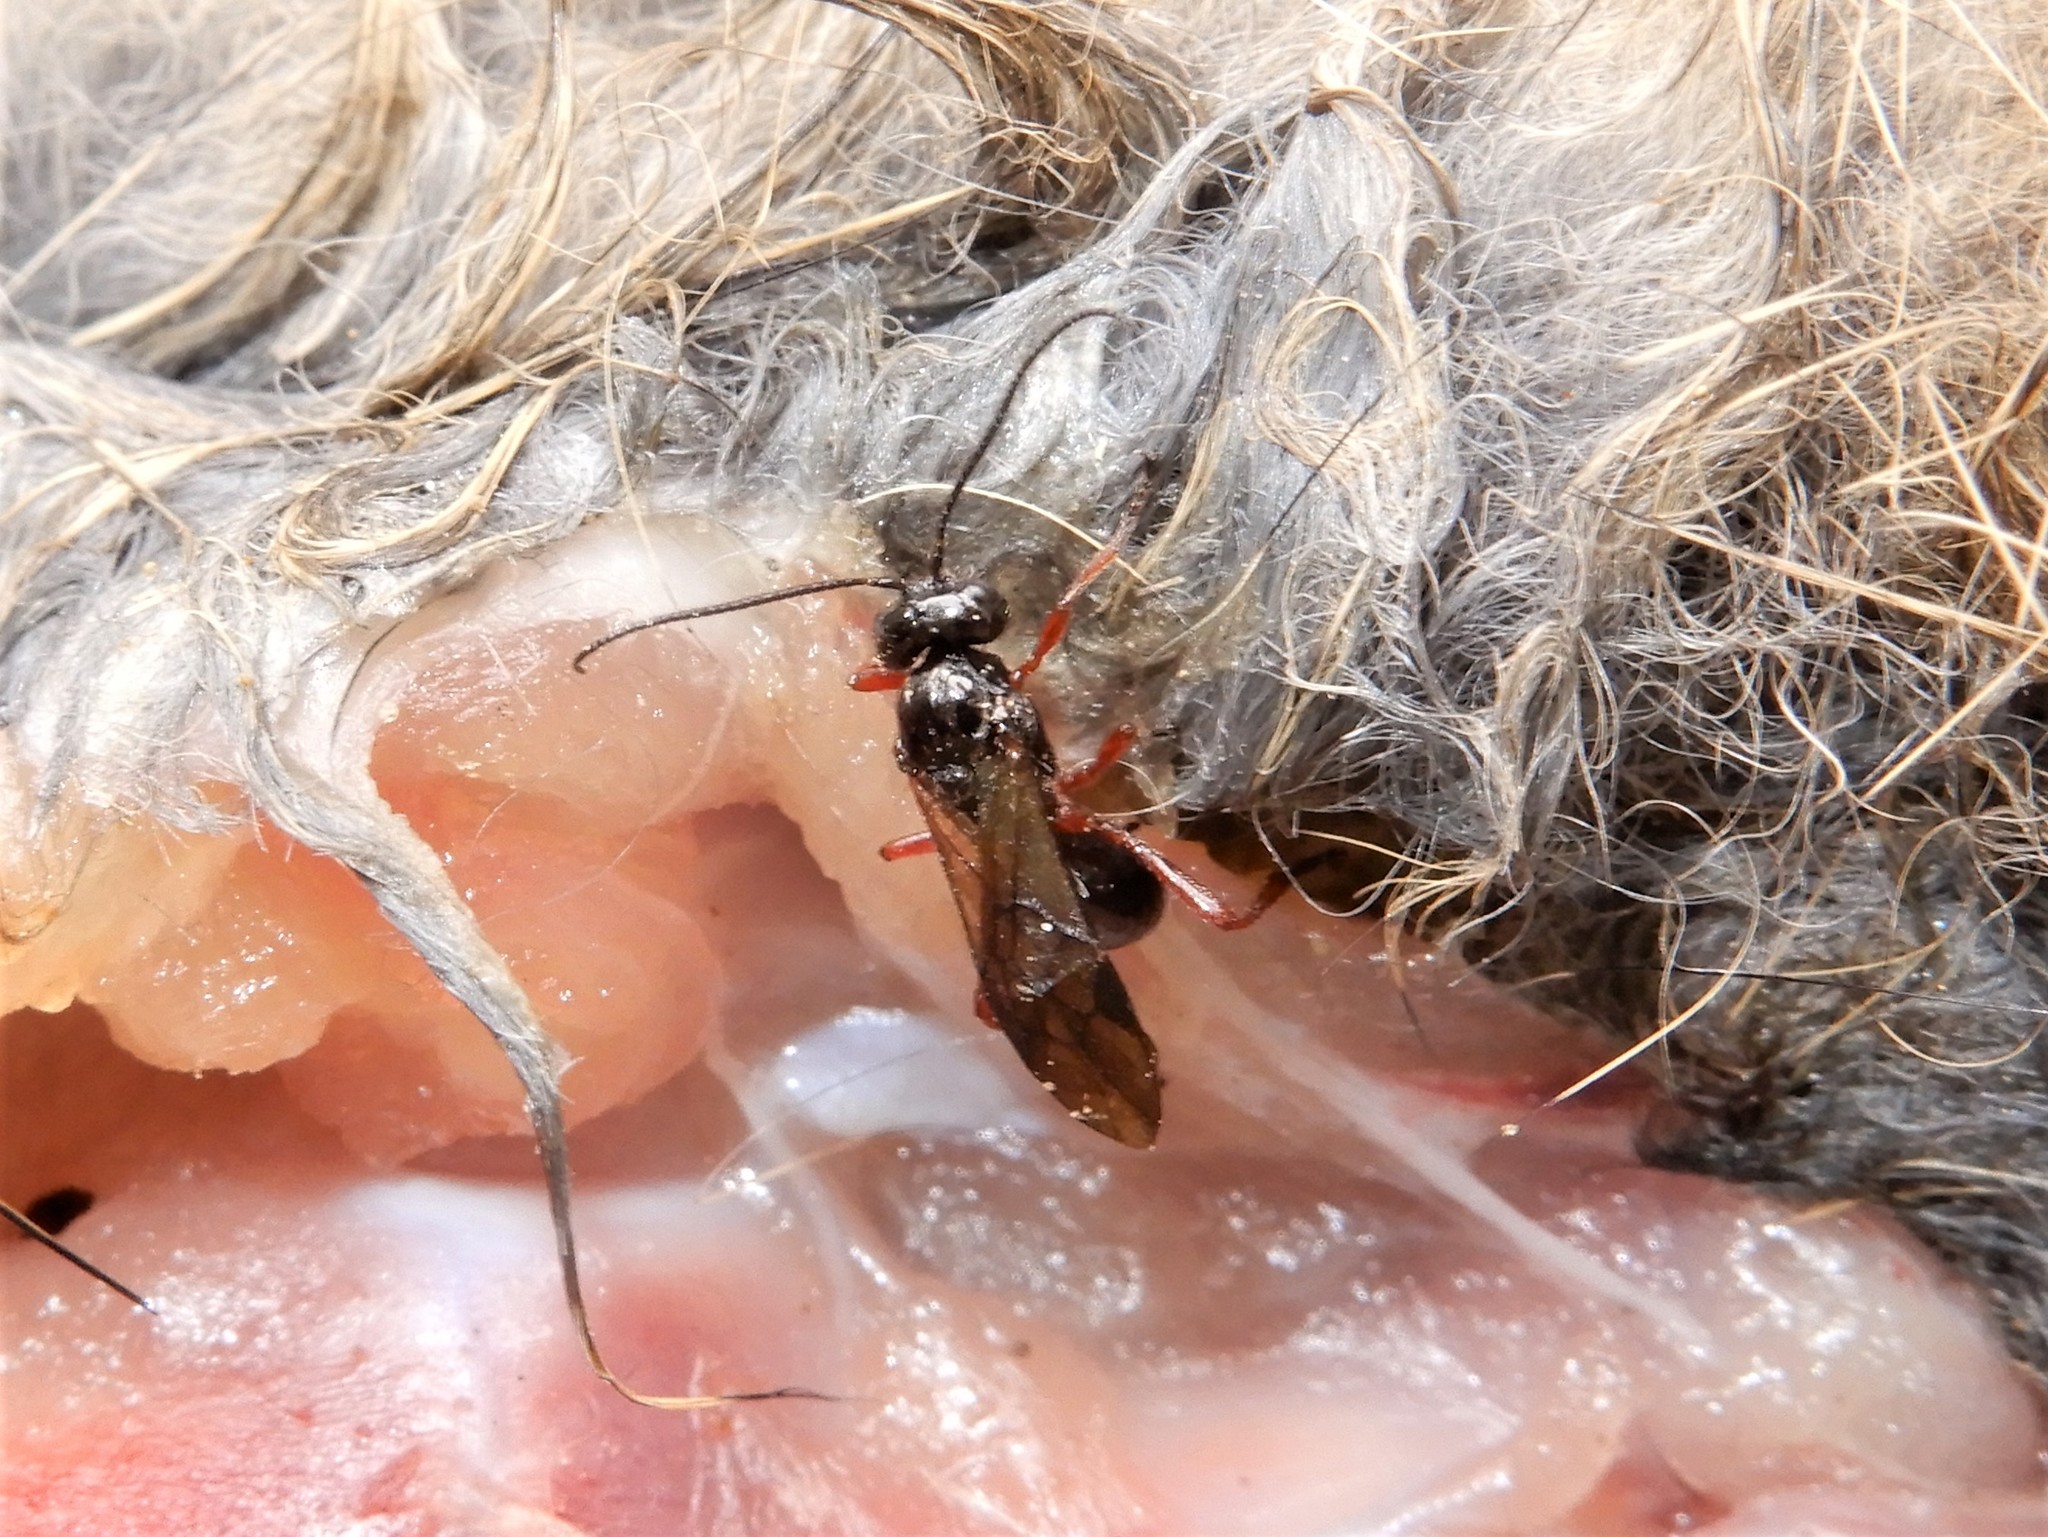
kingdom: Animalia
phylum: Arthropoda
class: Insecta
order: Hymenoptera
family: Braconidae
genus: Alysia
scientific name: Alysia manducator
